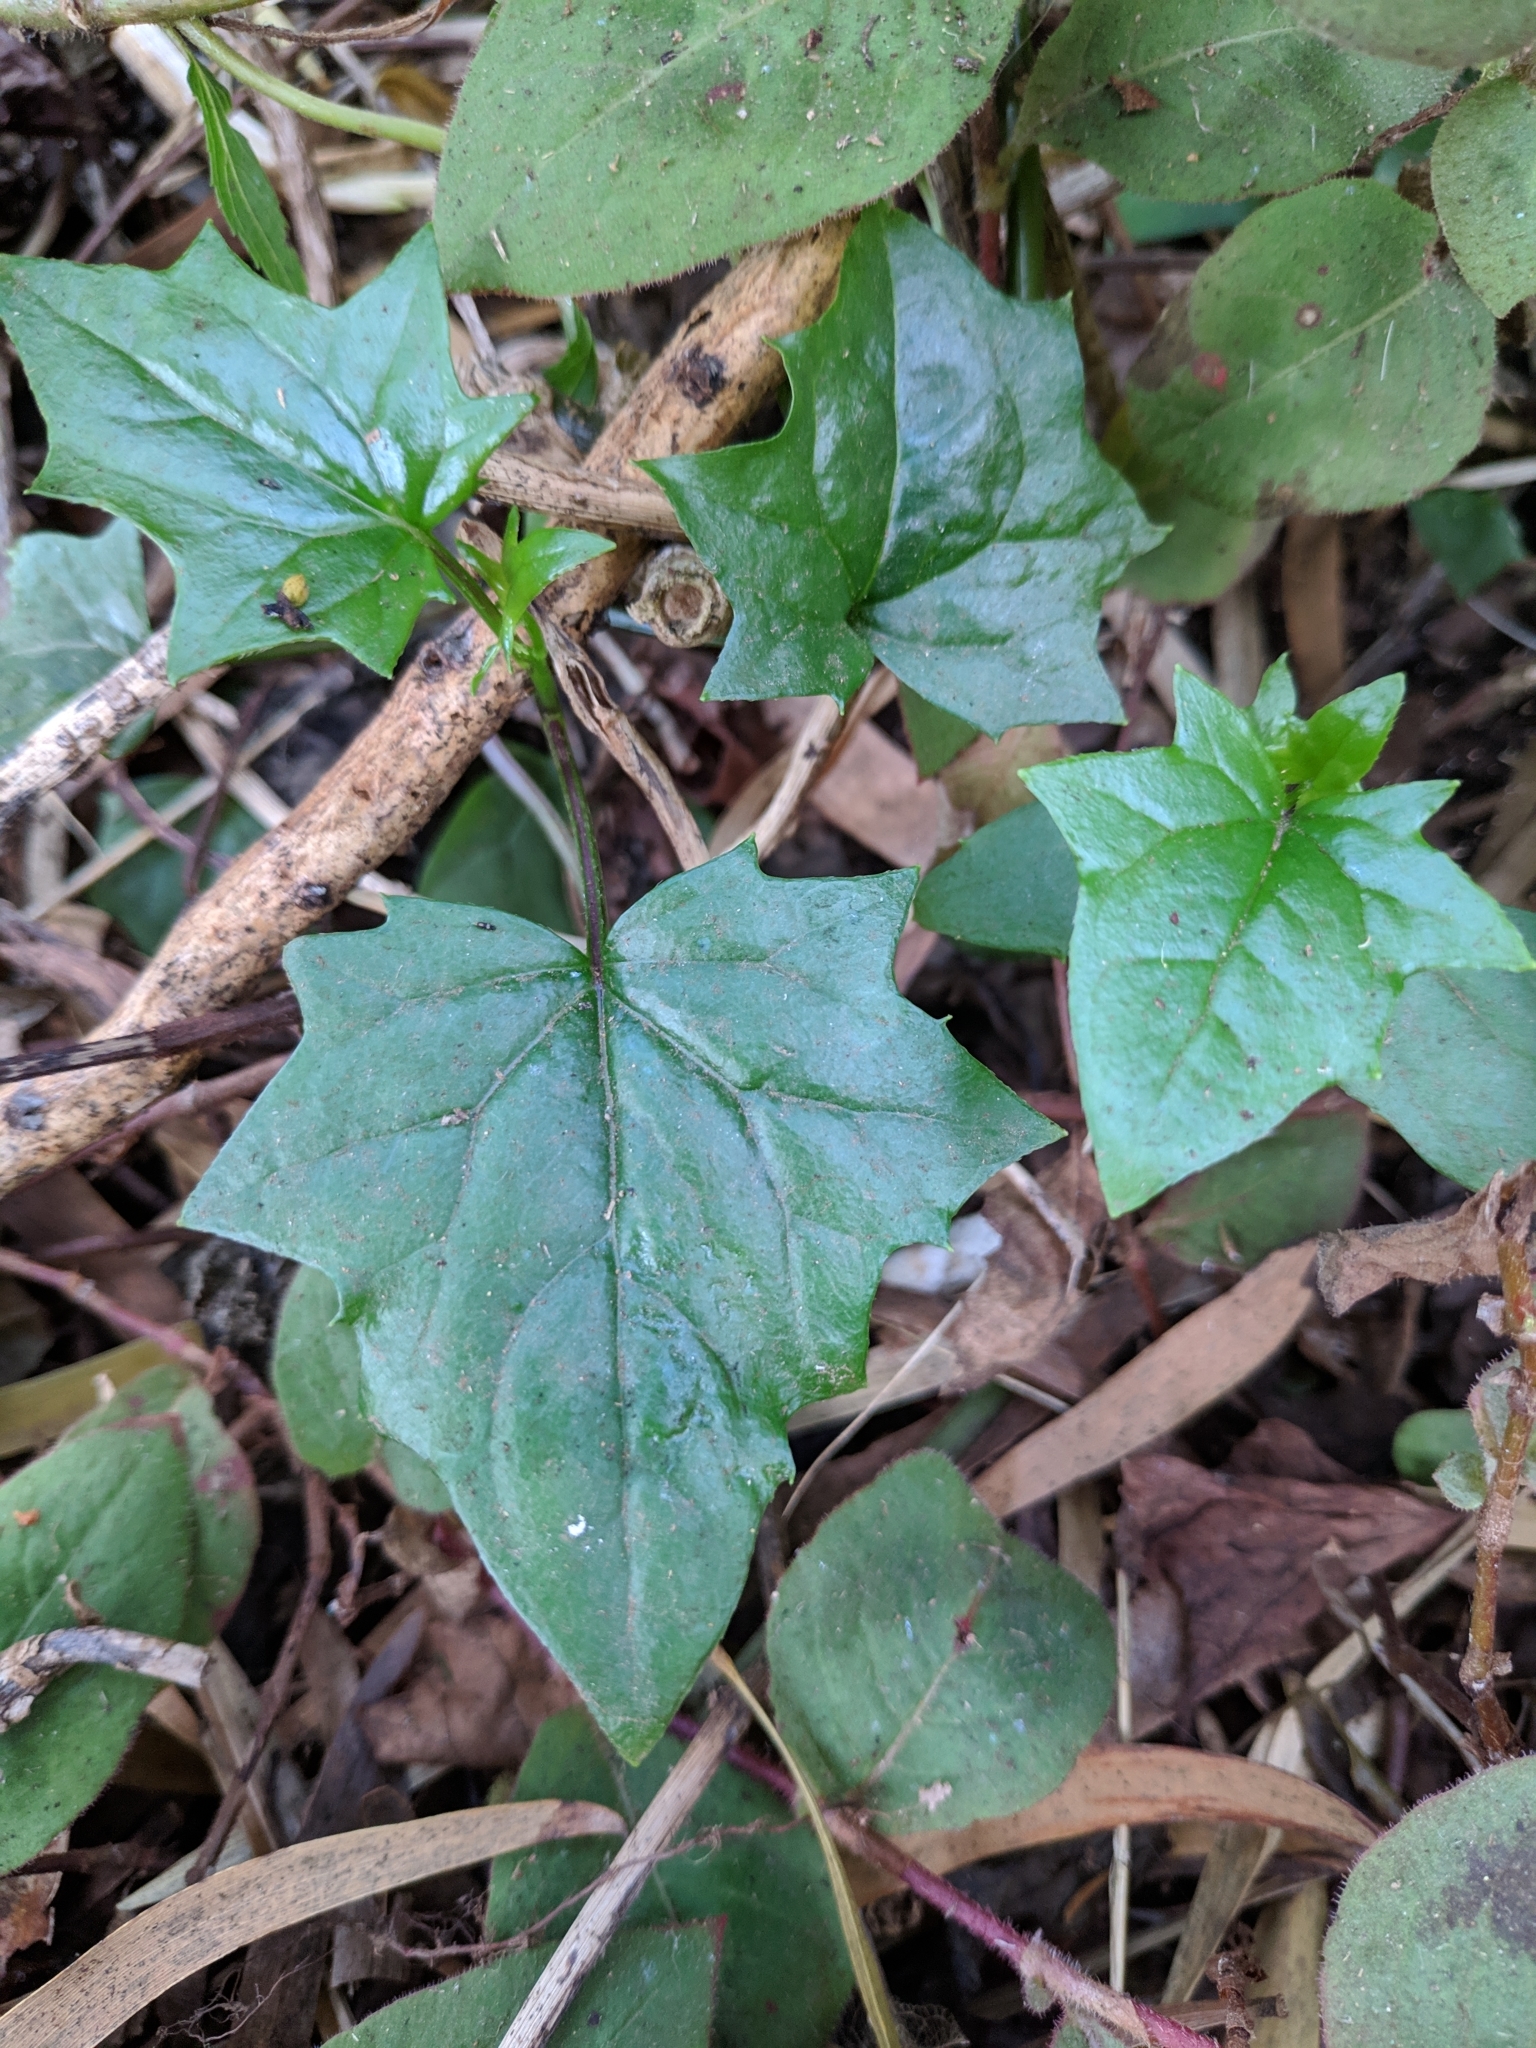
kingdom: Plantae
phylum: Tracheophyta
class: Magnoliopsida
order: Asterales
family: Asteraceae
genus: Senecio
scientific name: Senecio tamoides
